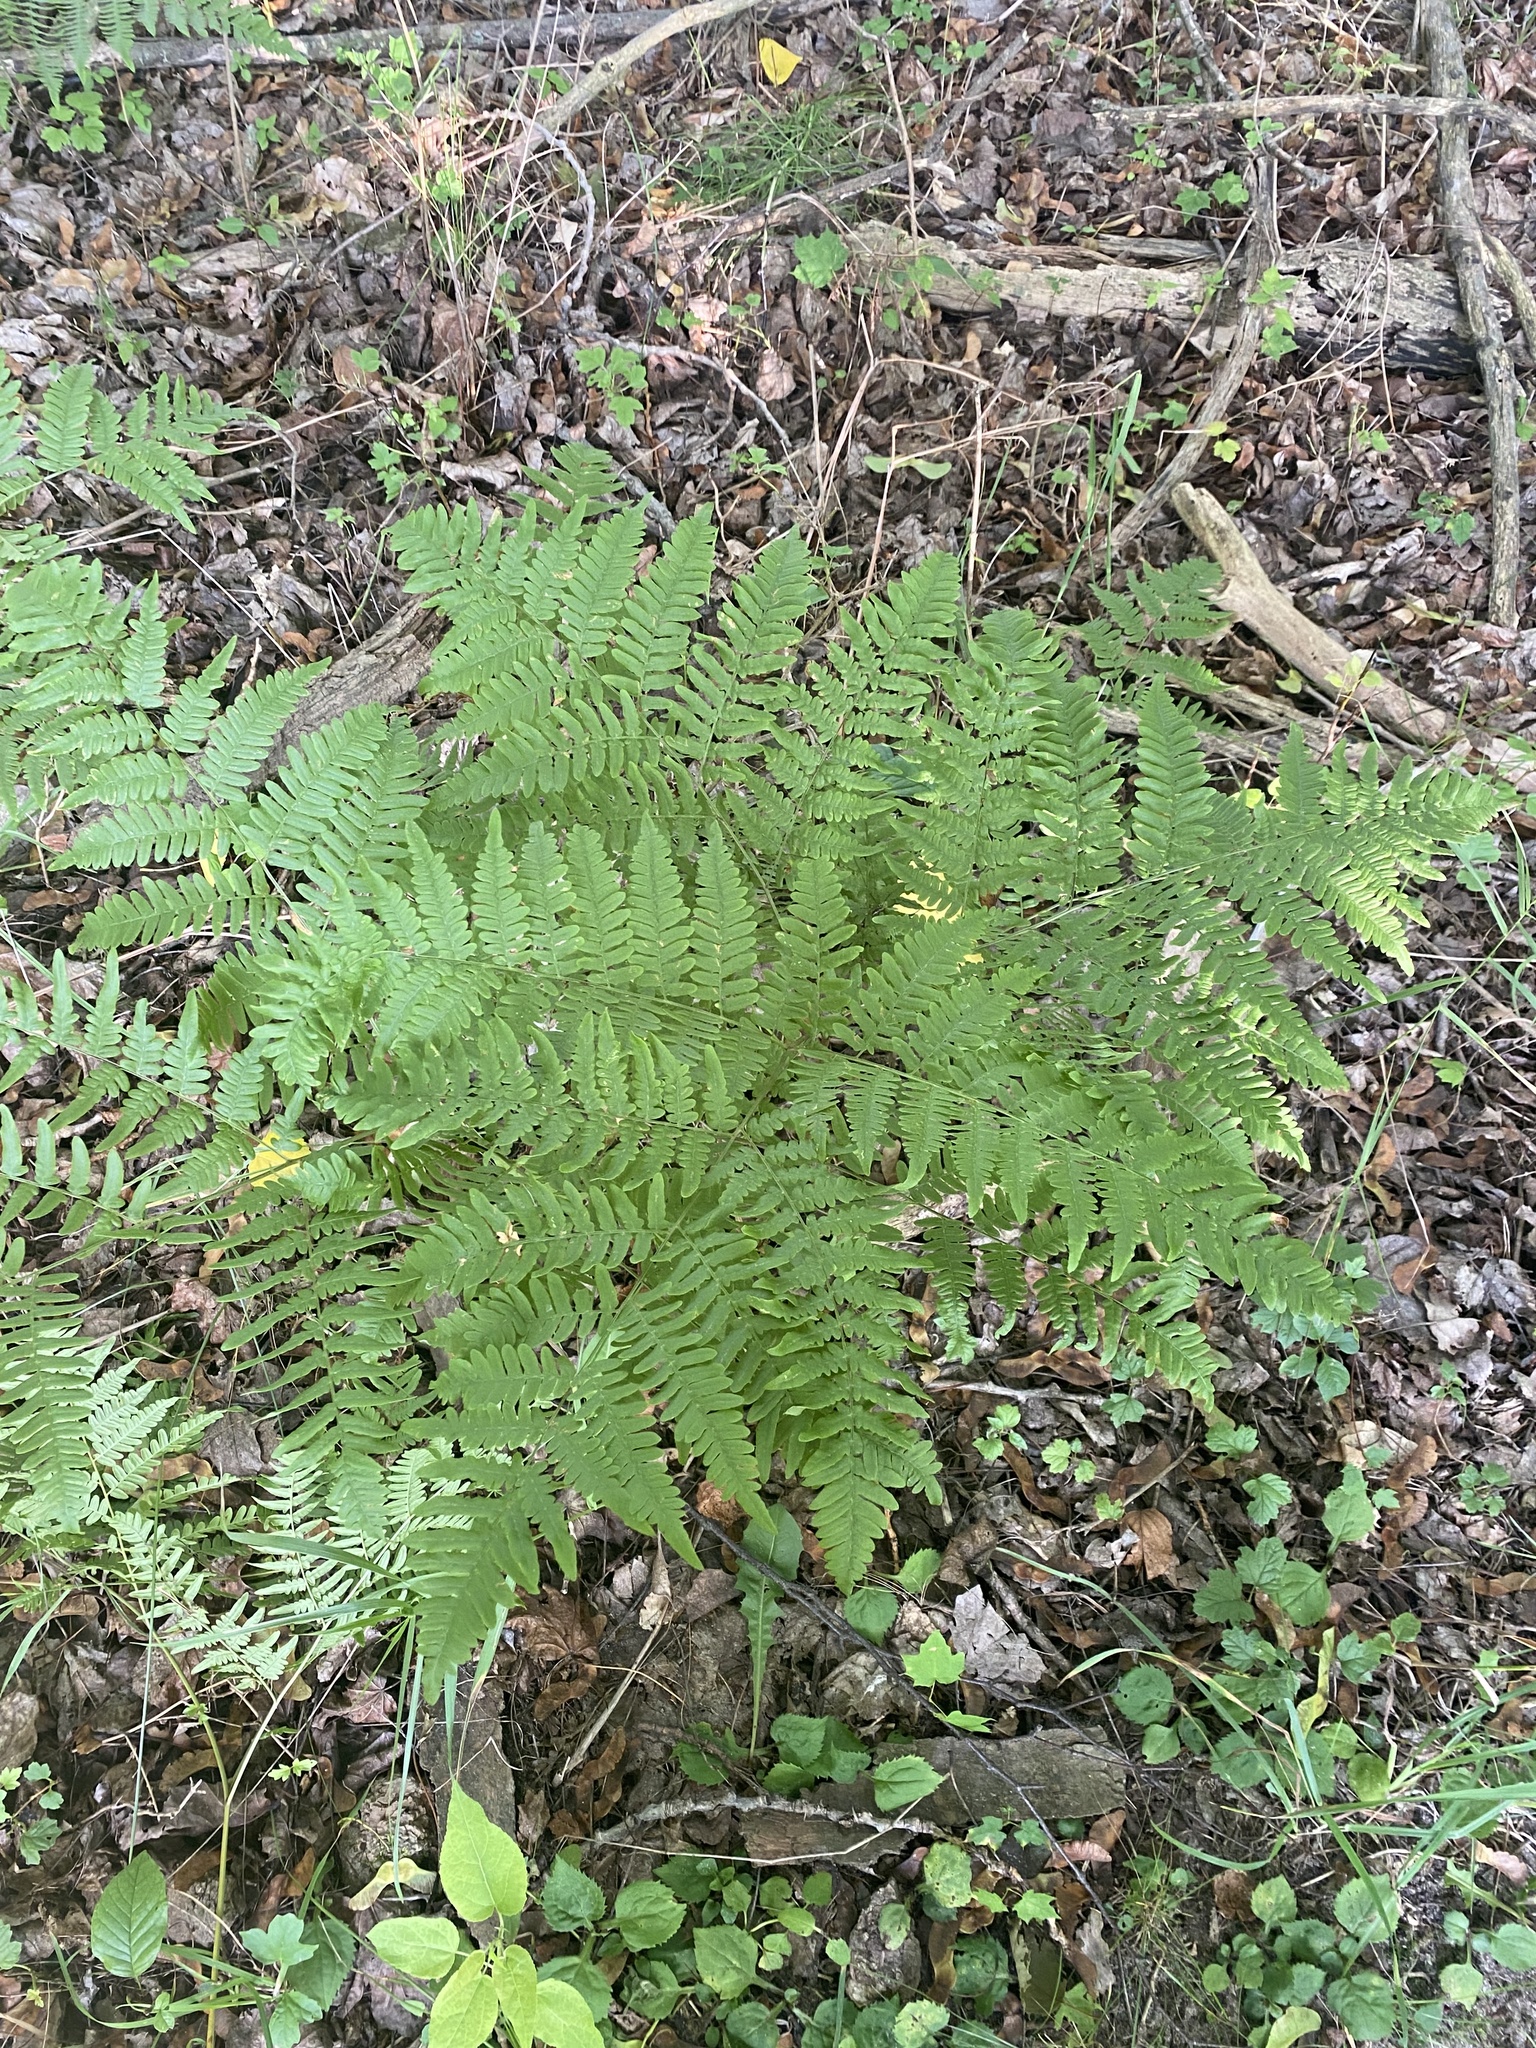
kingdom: Plantae
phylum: Tracheophyta
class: Polypodiopsida
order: Polypodiales
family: Dennstaedtiaceae
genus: Pteridium
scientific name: Pteridium aquilinum
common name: Bracken
